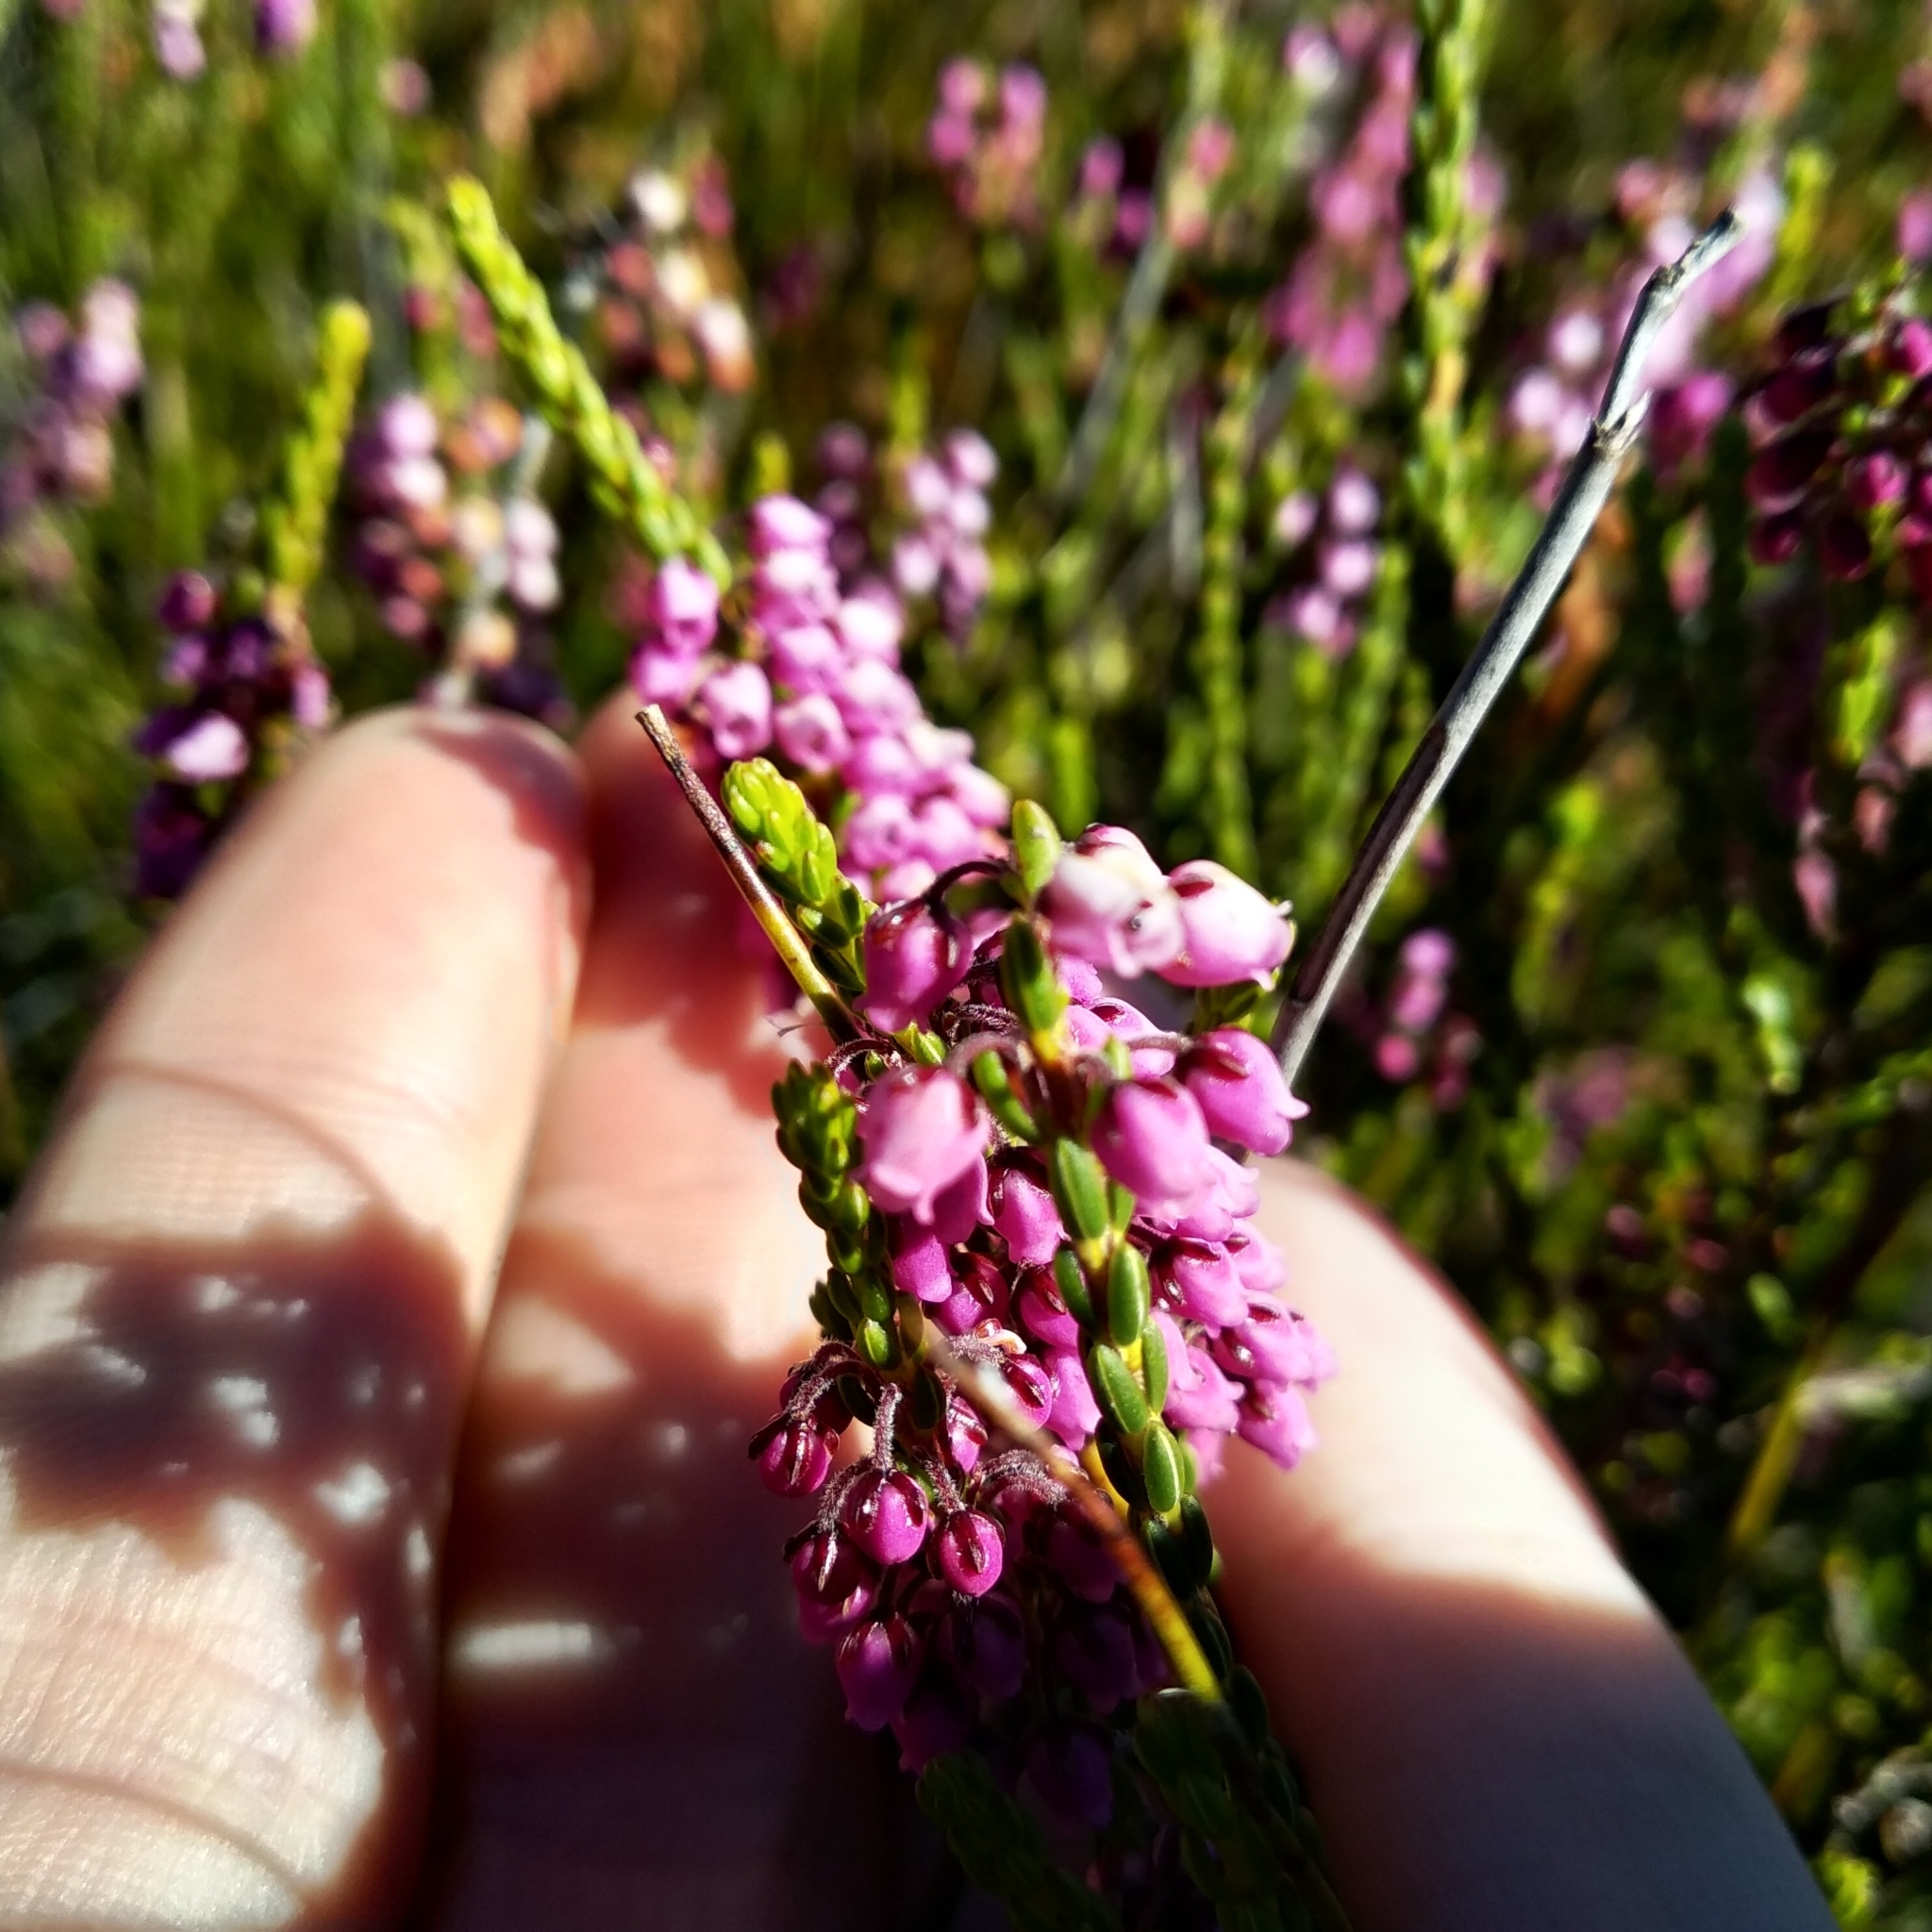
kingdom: Plantae
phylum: Tracheophyta
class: Magnoliopsida
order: Ericales
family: Ericaceae
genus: Erica
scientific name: Erica pulchella
